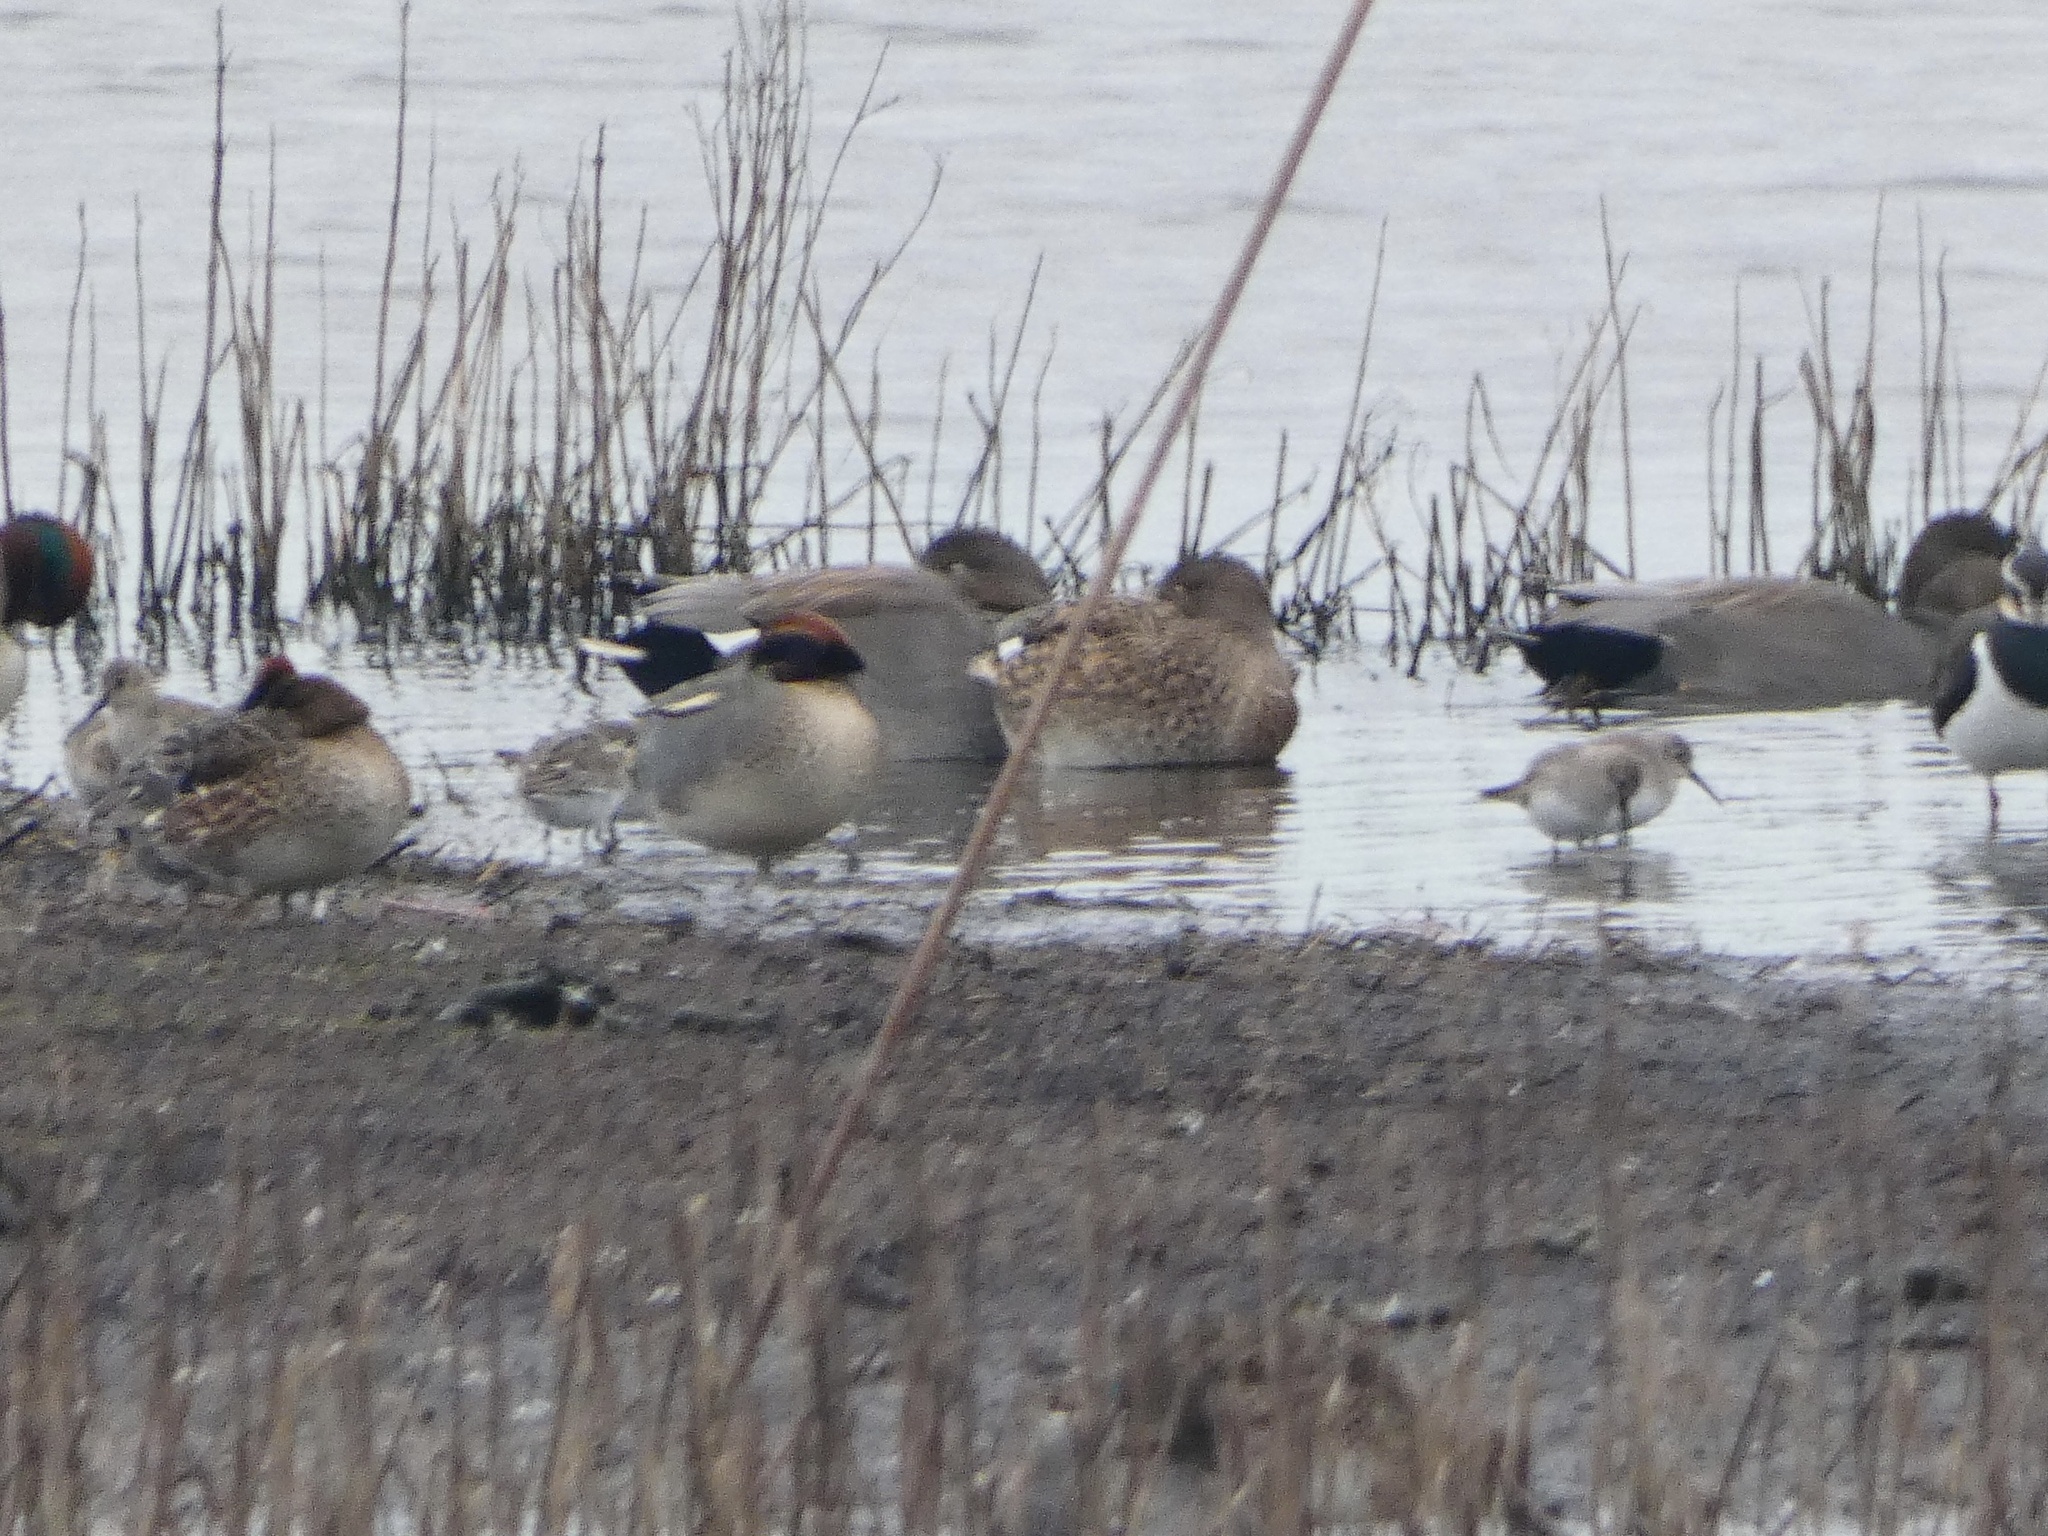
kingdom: Animalia
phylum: Chordata
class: Aves
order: Charadriiformes
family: Scolopacidae
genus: Calidris
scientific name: Calidris alpina
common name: Dunlin
